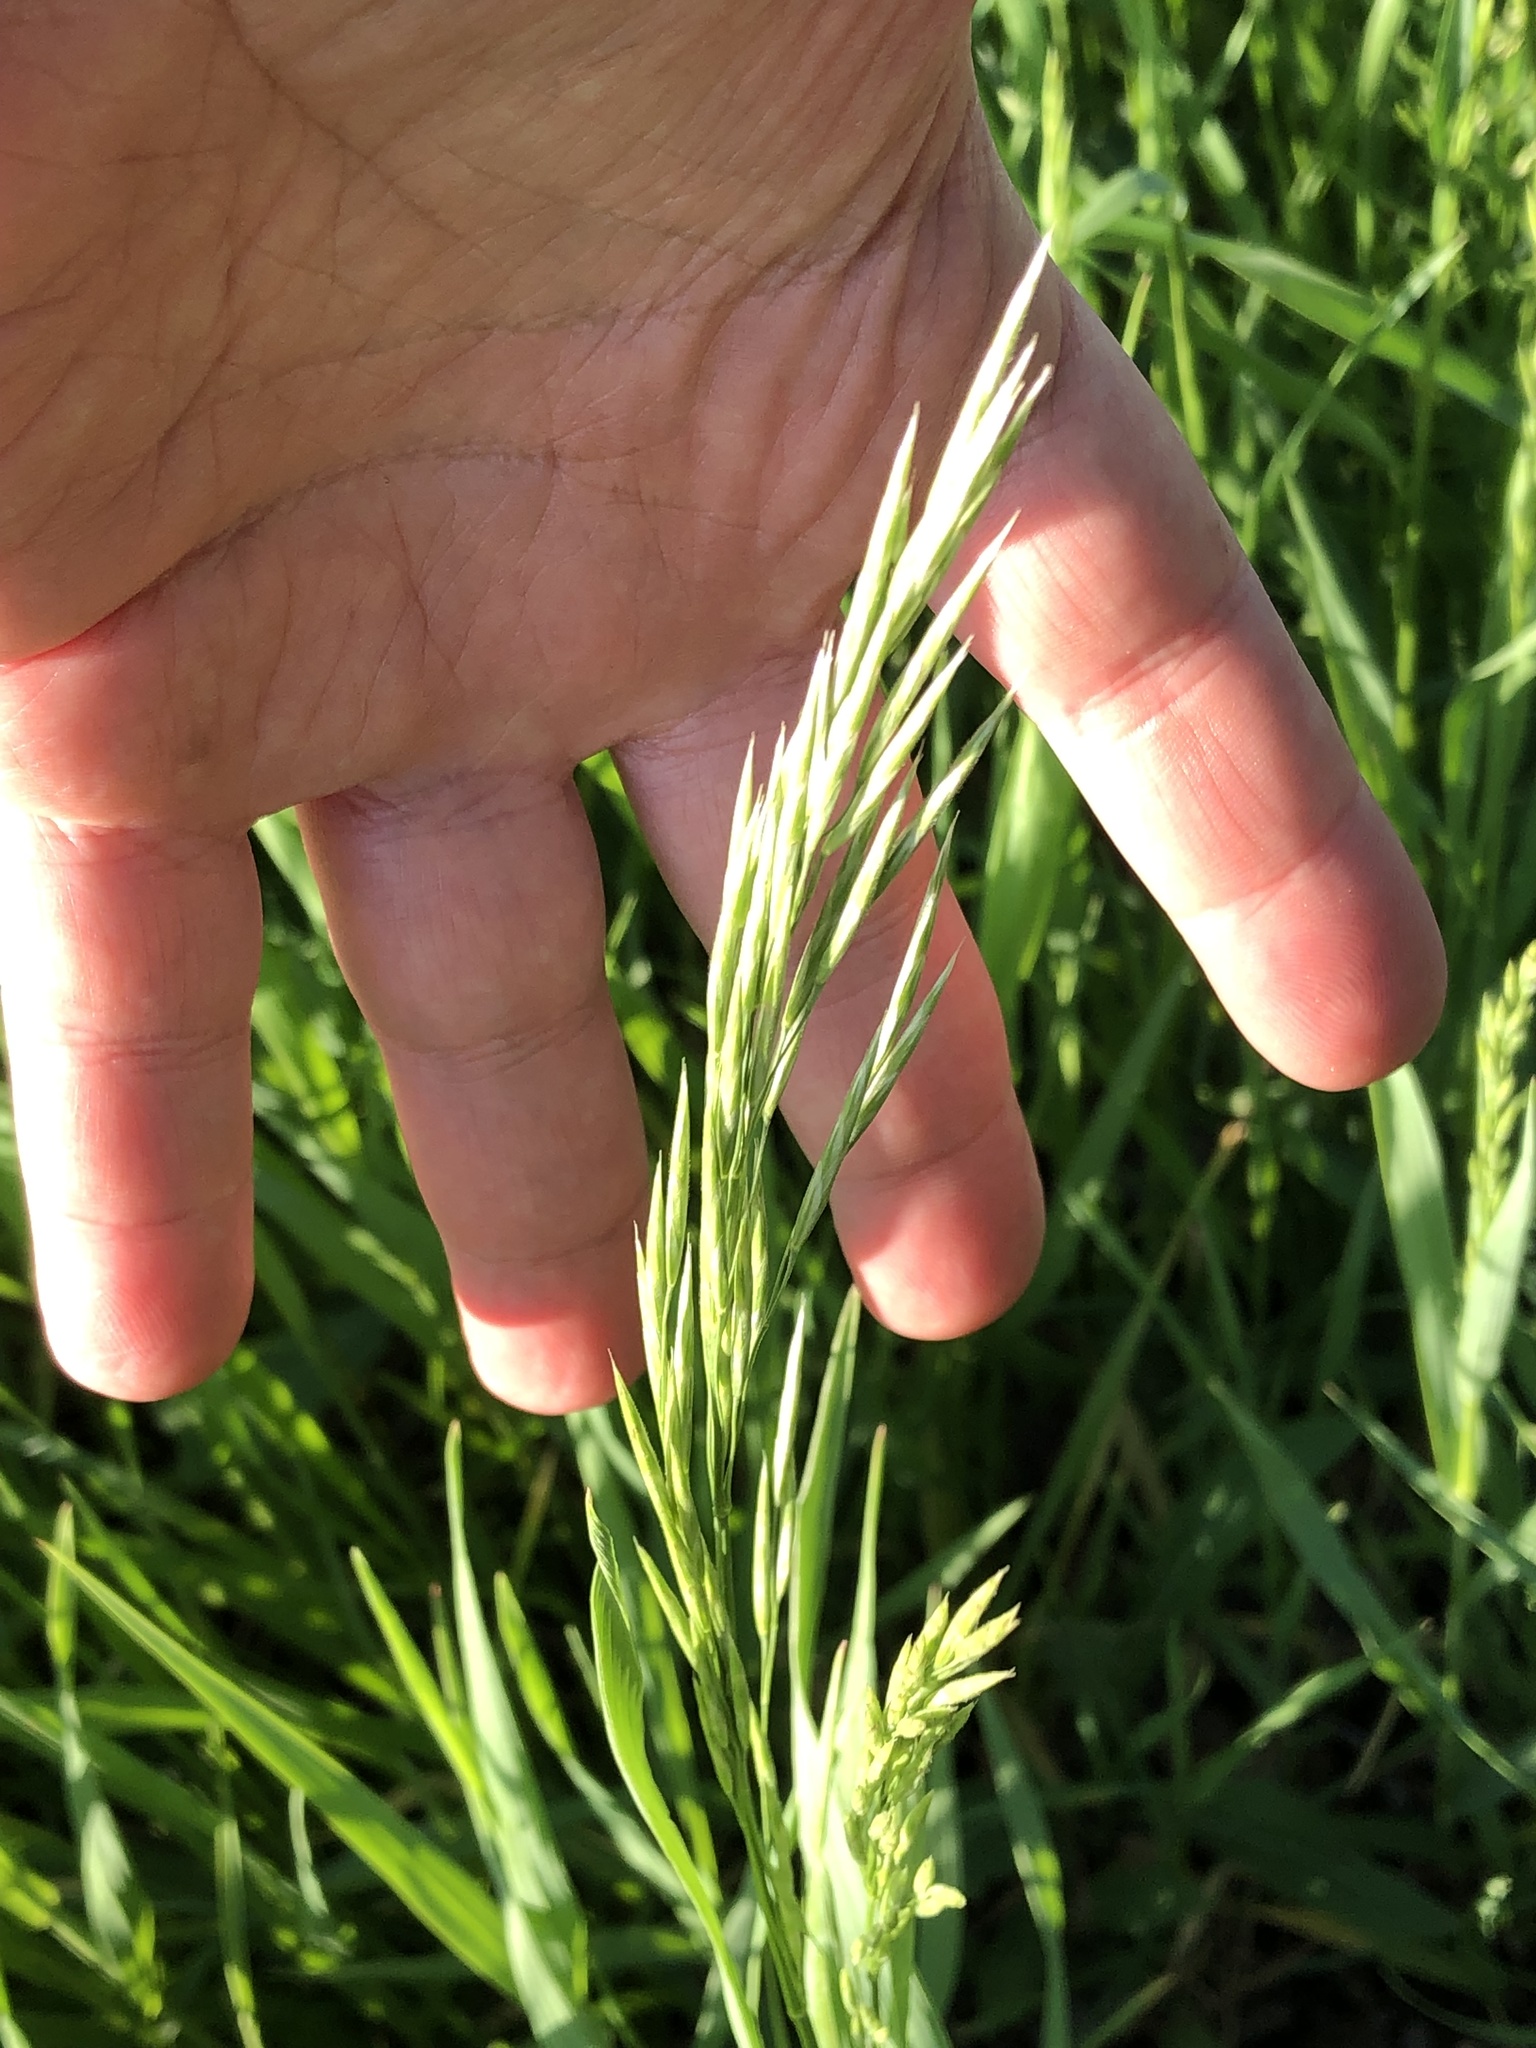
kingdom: Plantae
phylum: Tracheophyta
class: Liliopsida
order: Poales
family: Poaceae
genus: Bromus
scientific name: Bromus inermis
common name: Smooth brome
